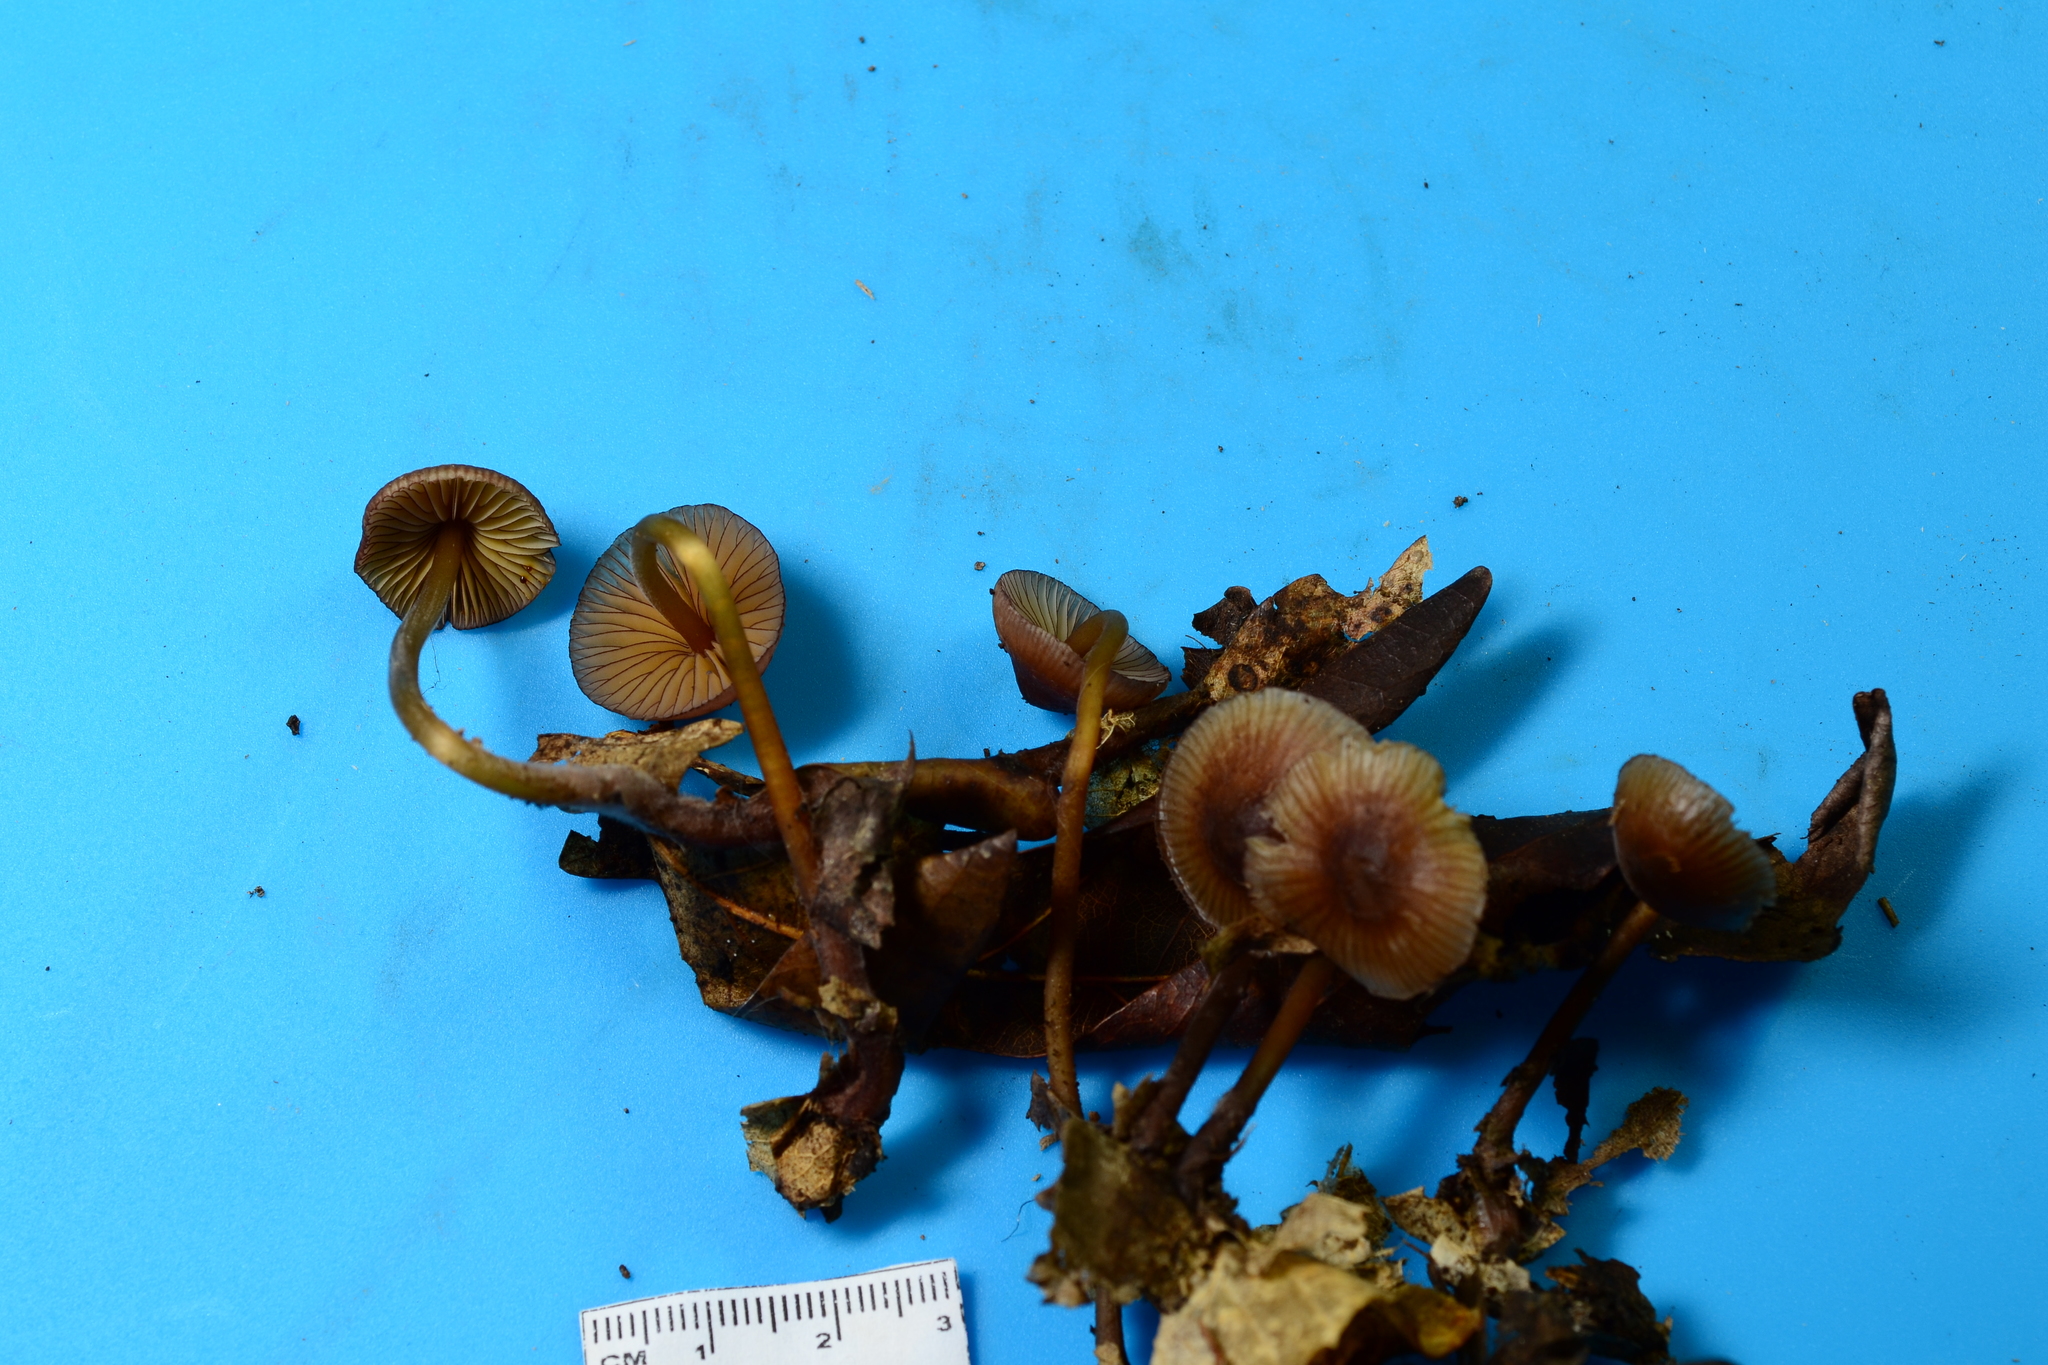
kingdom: Fungi
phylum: Basidiomycota
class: Agaricomycetes
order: Agaricales
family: Mycenaceae
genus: Mycena
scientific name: Mycena atkinsoniana
